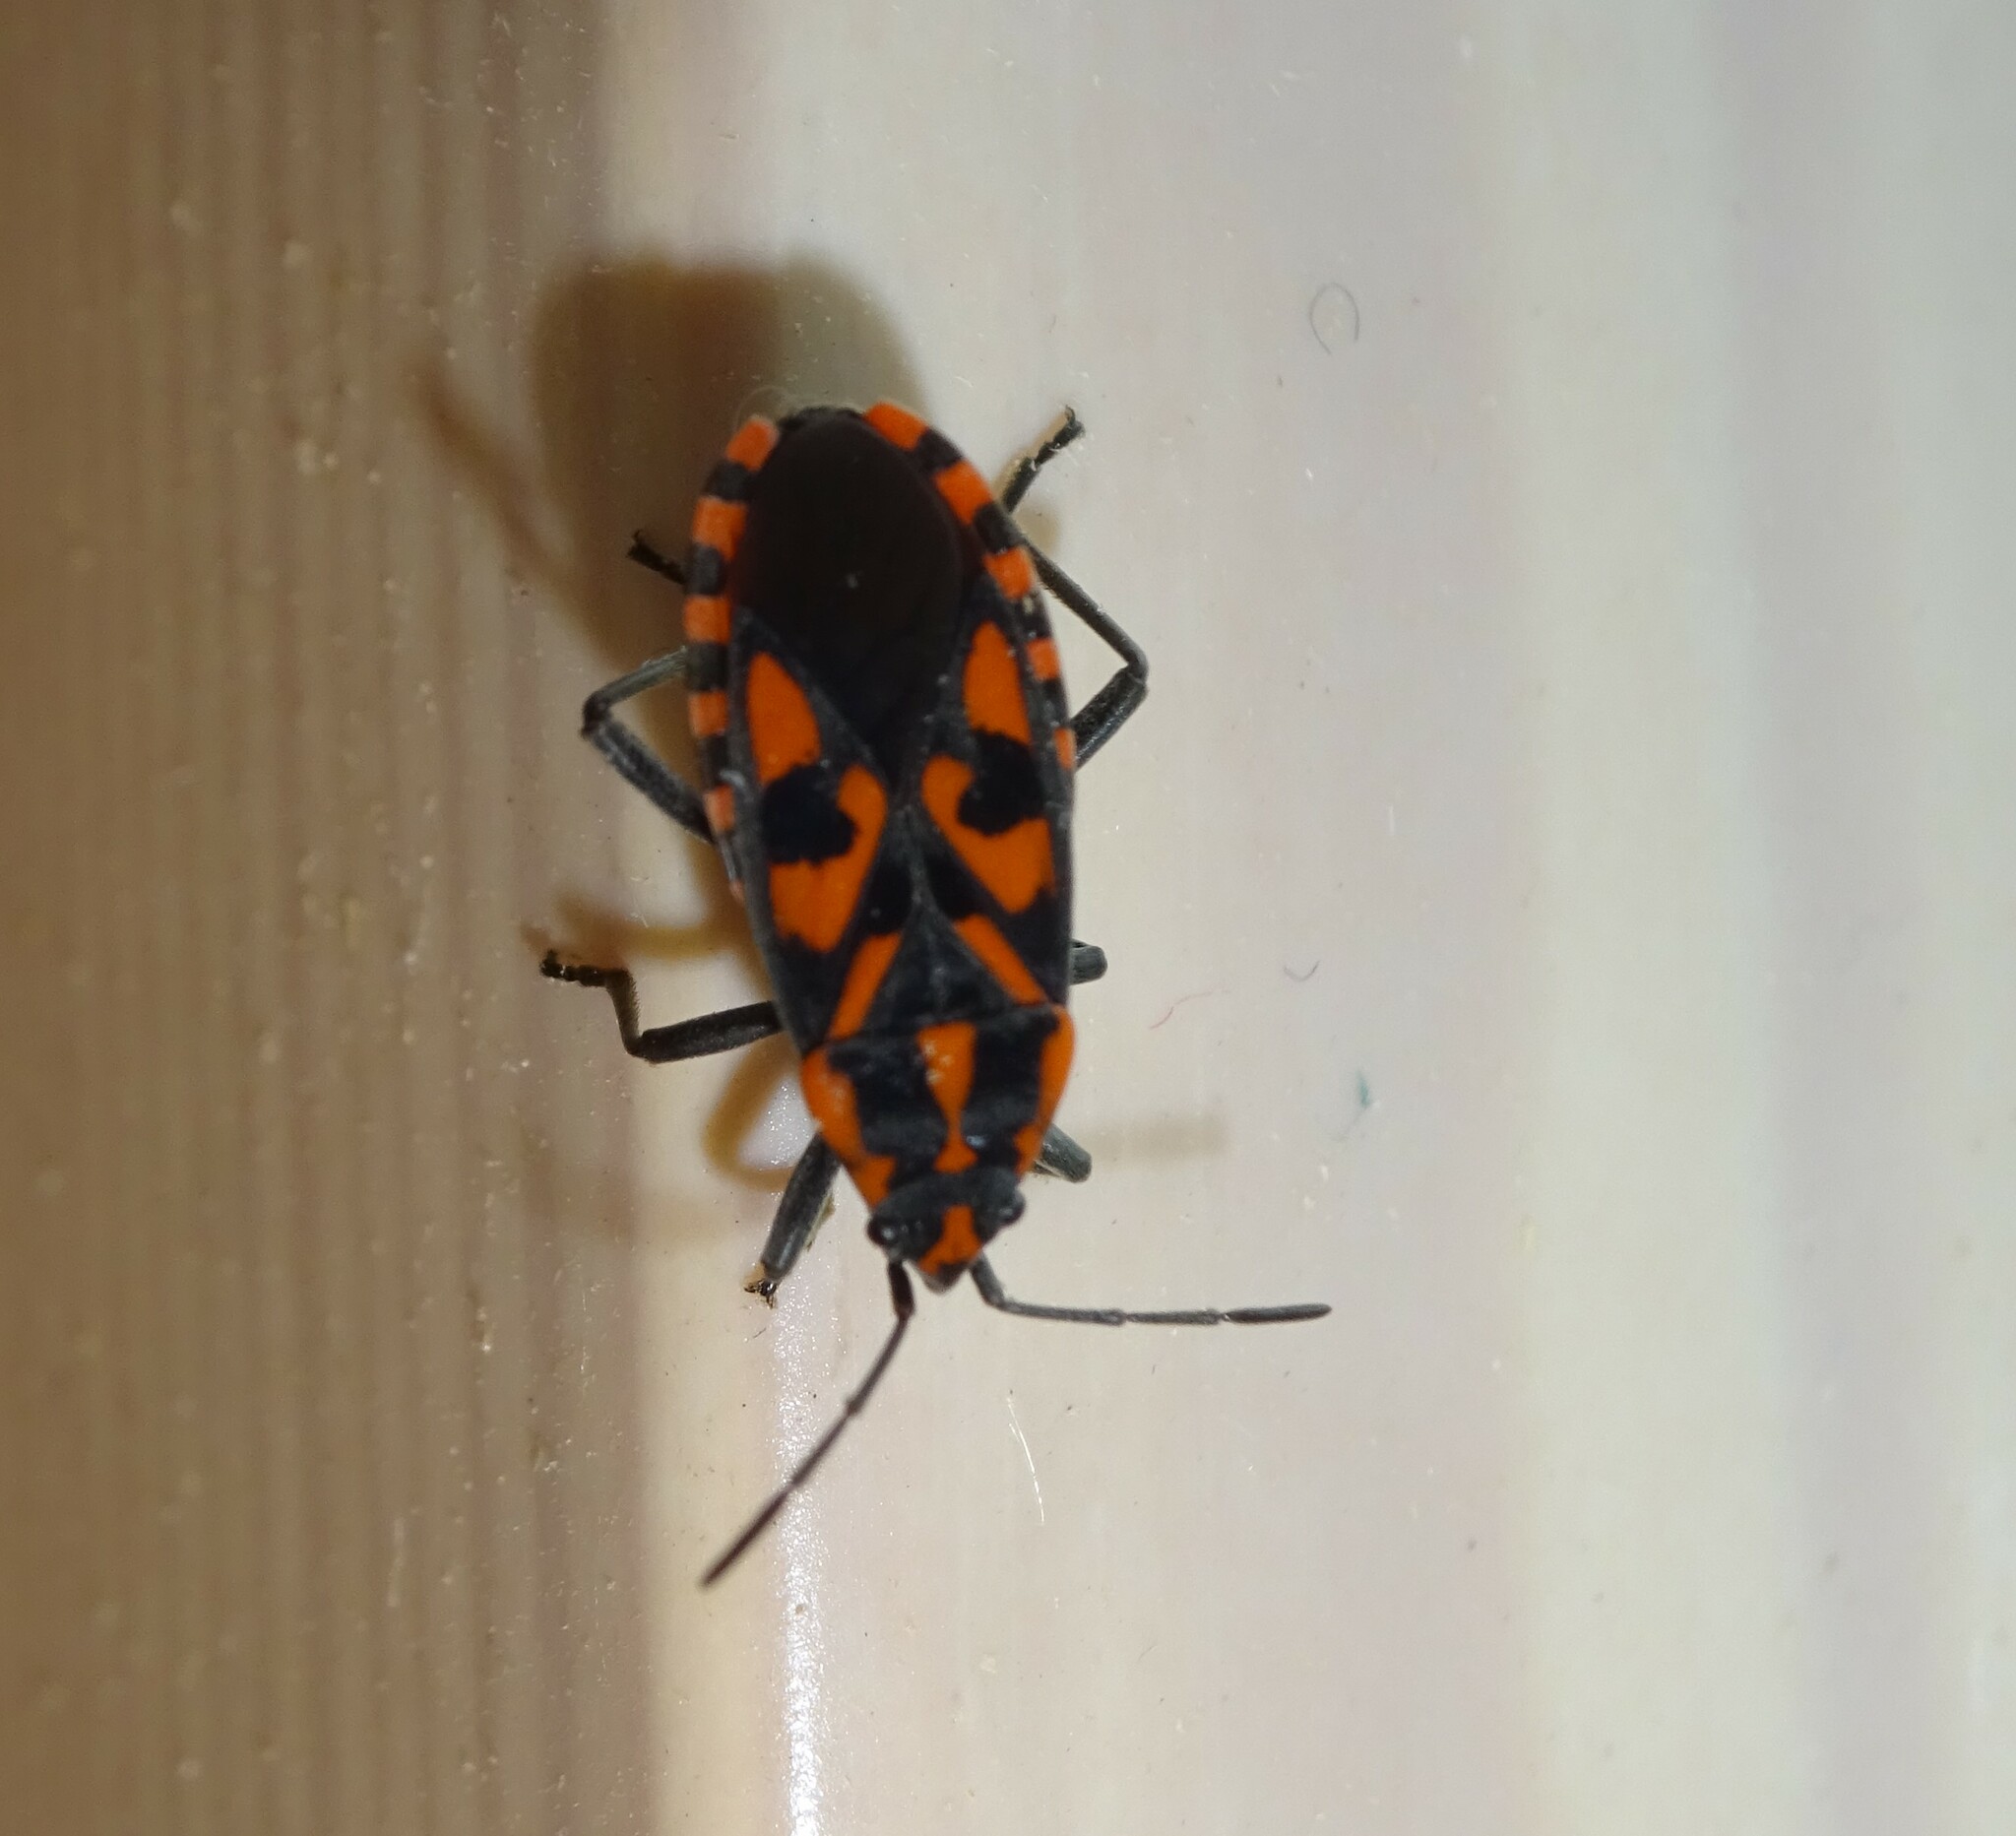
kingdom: Animalia
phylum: Arthropoda
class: Insecta
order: Hemiptera
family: Lygaeidae
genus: Spilostethus
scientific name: Spilostethus saxatilis
